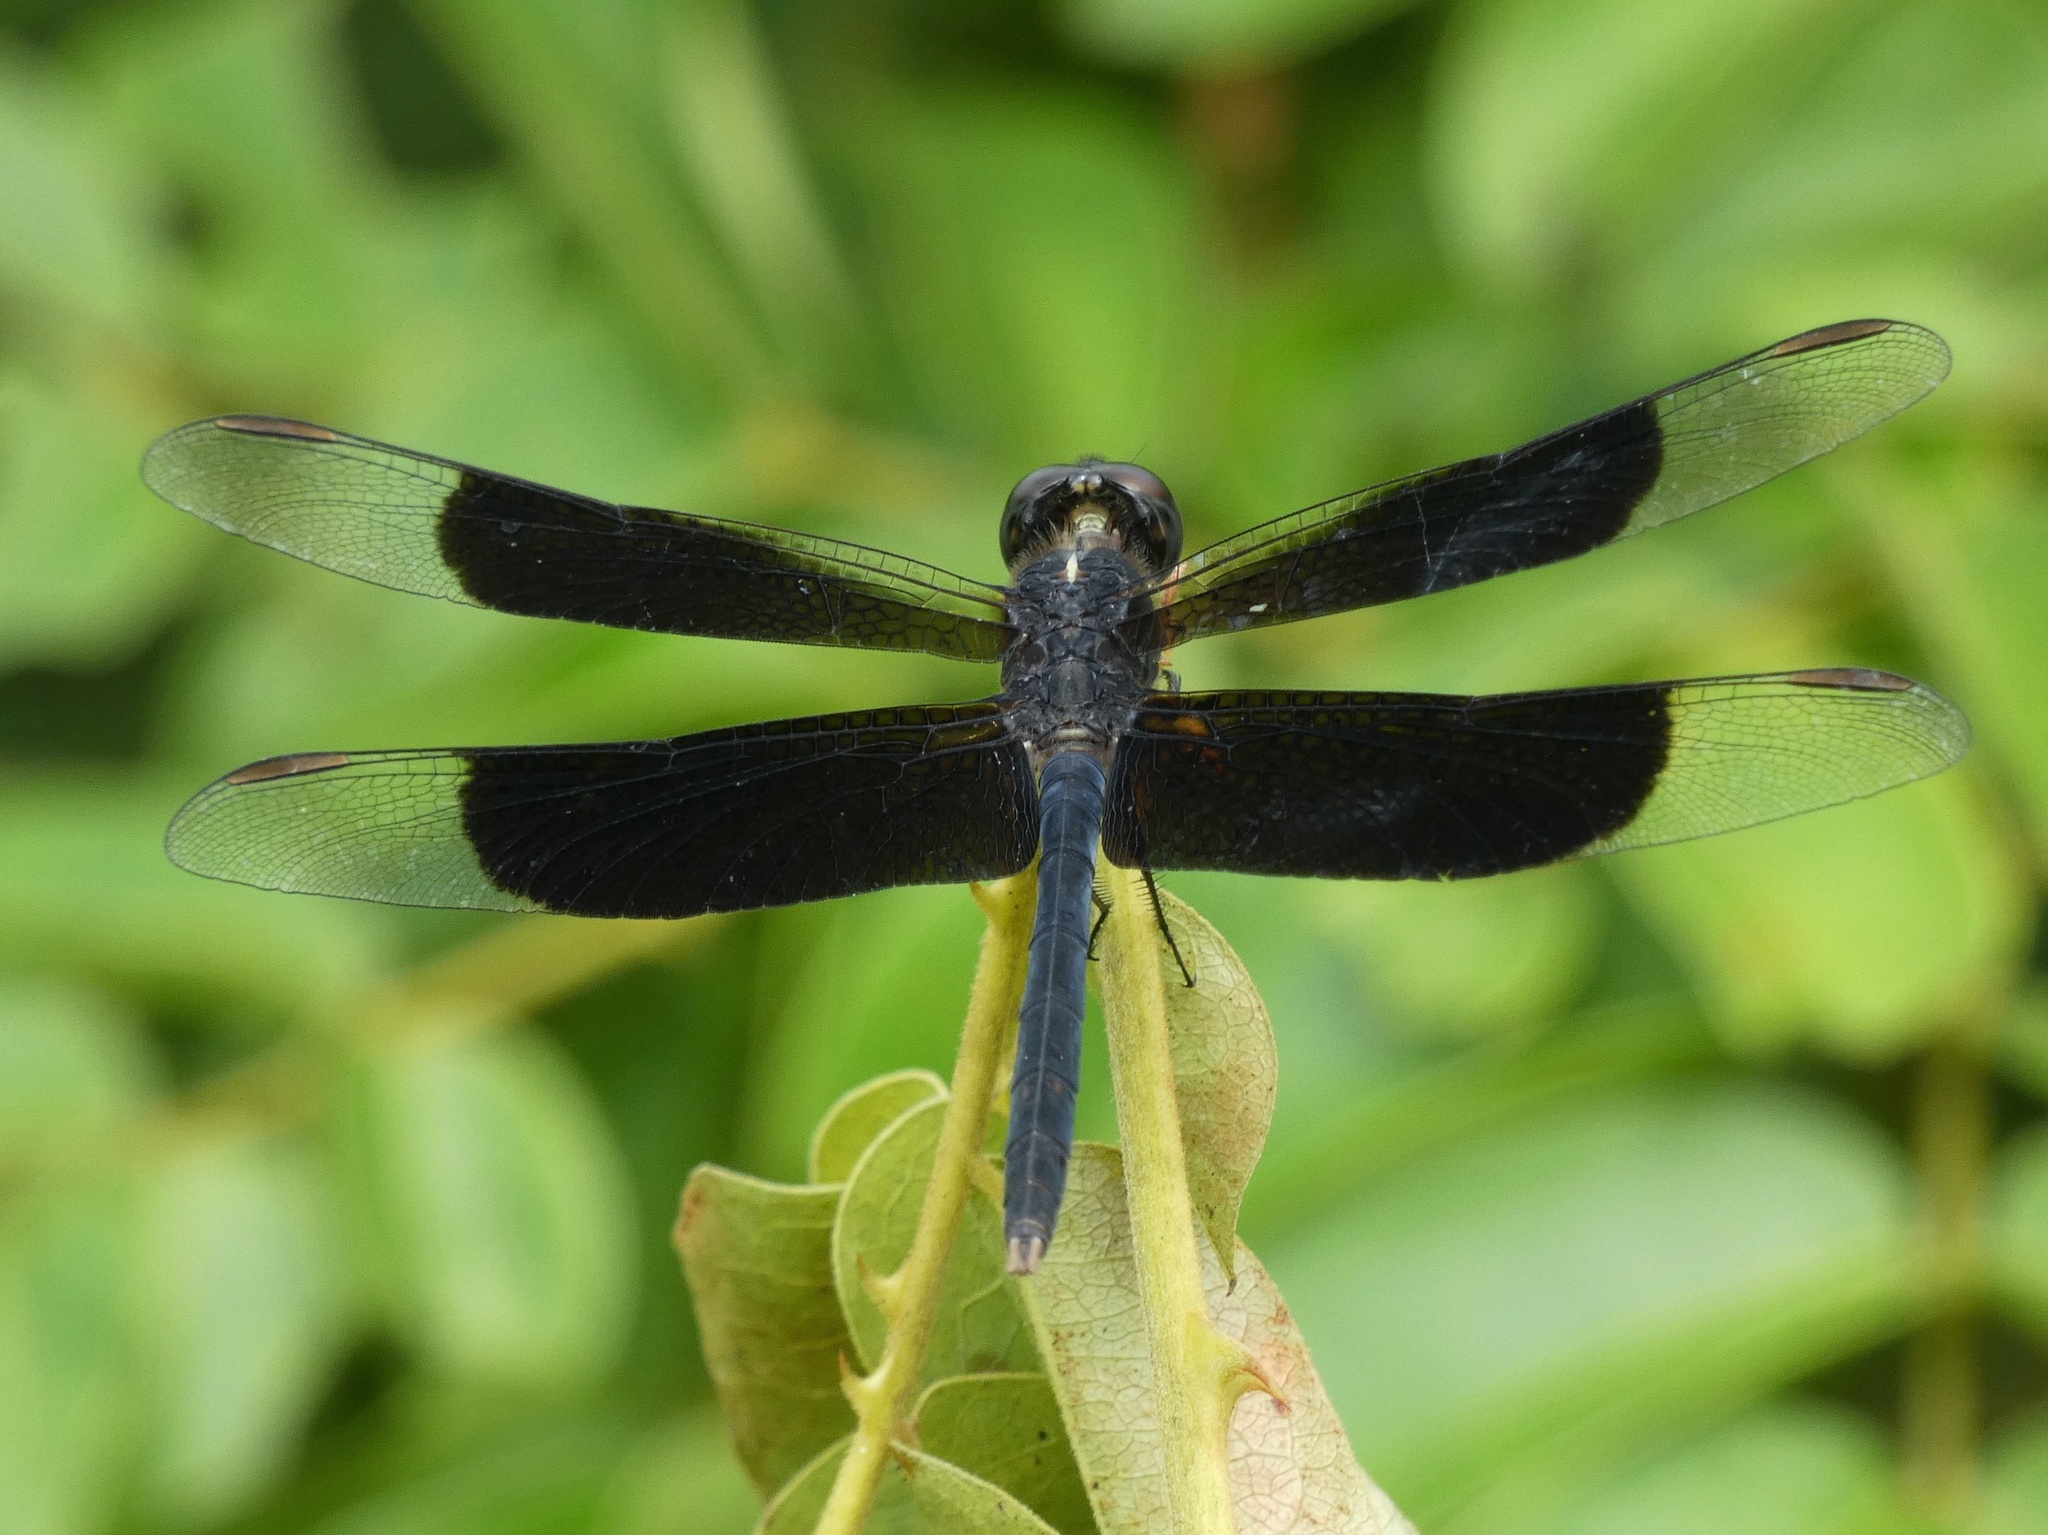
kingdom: Animalia
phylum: Arthropoda
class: Insecta
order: Odonata
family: Libellulidae
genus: Erythrodiplax
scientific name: Erythrodiplax funerea
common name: Black-winged dragonlet
